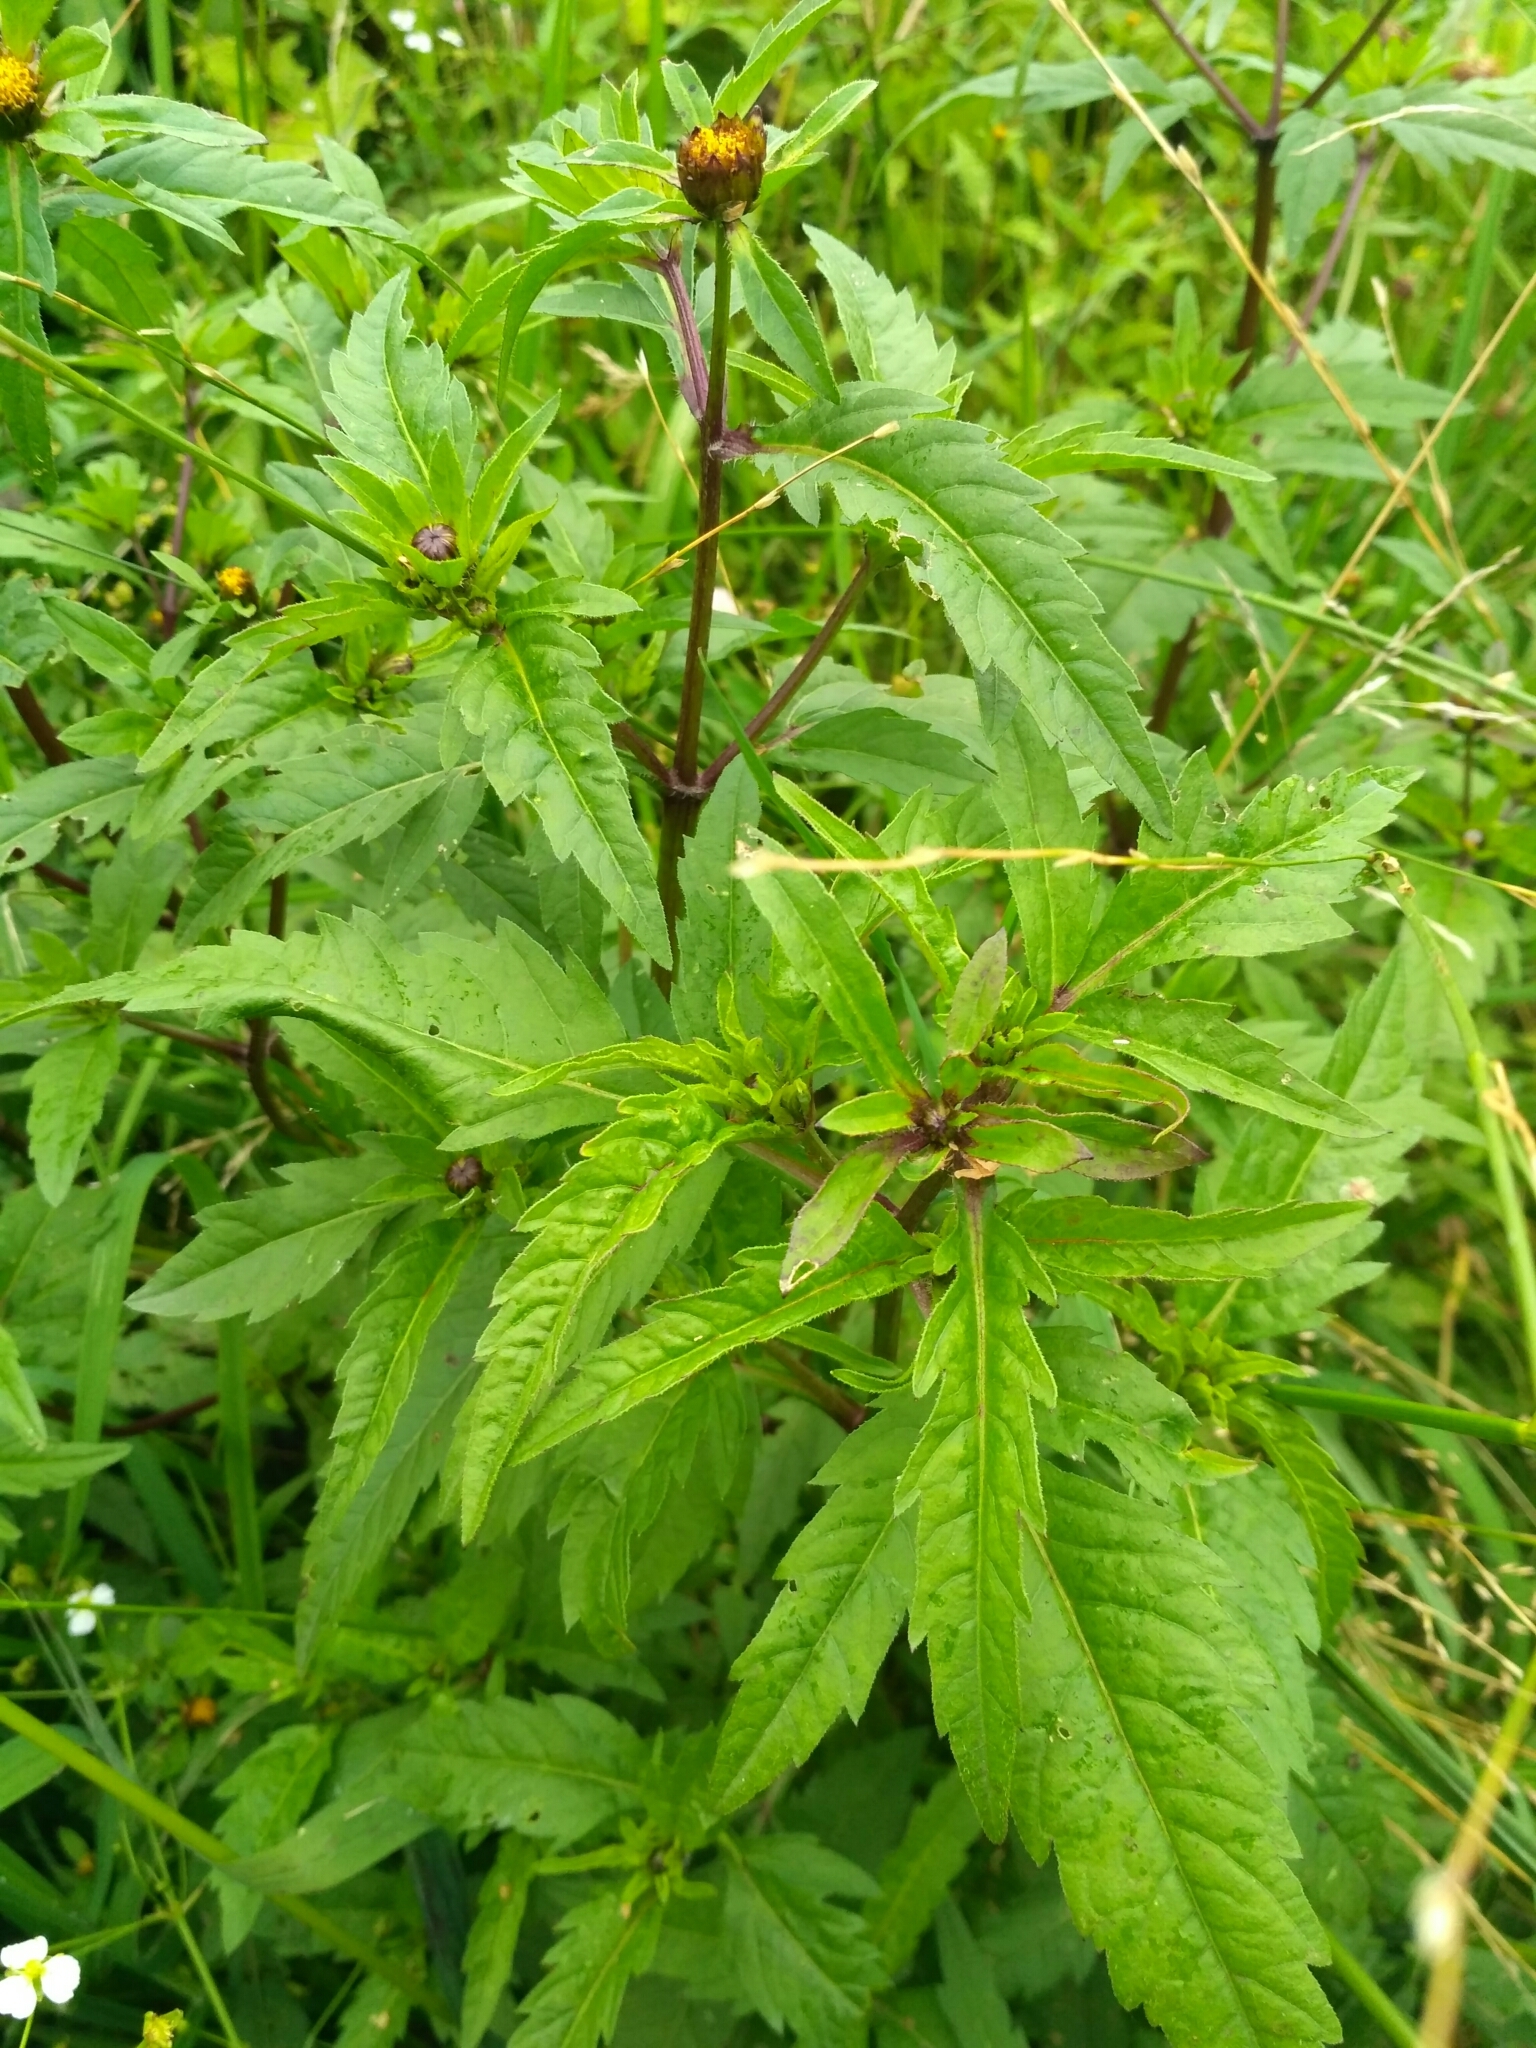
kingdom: Plantae
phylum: Tracheophyta
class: Magnoliopsida
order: Asterales
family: Asteraceae
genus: Bidens
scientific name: Bidens tripartita
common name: Trifid bur-marigold
